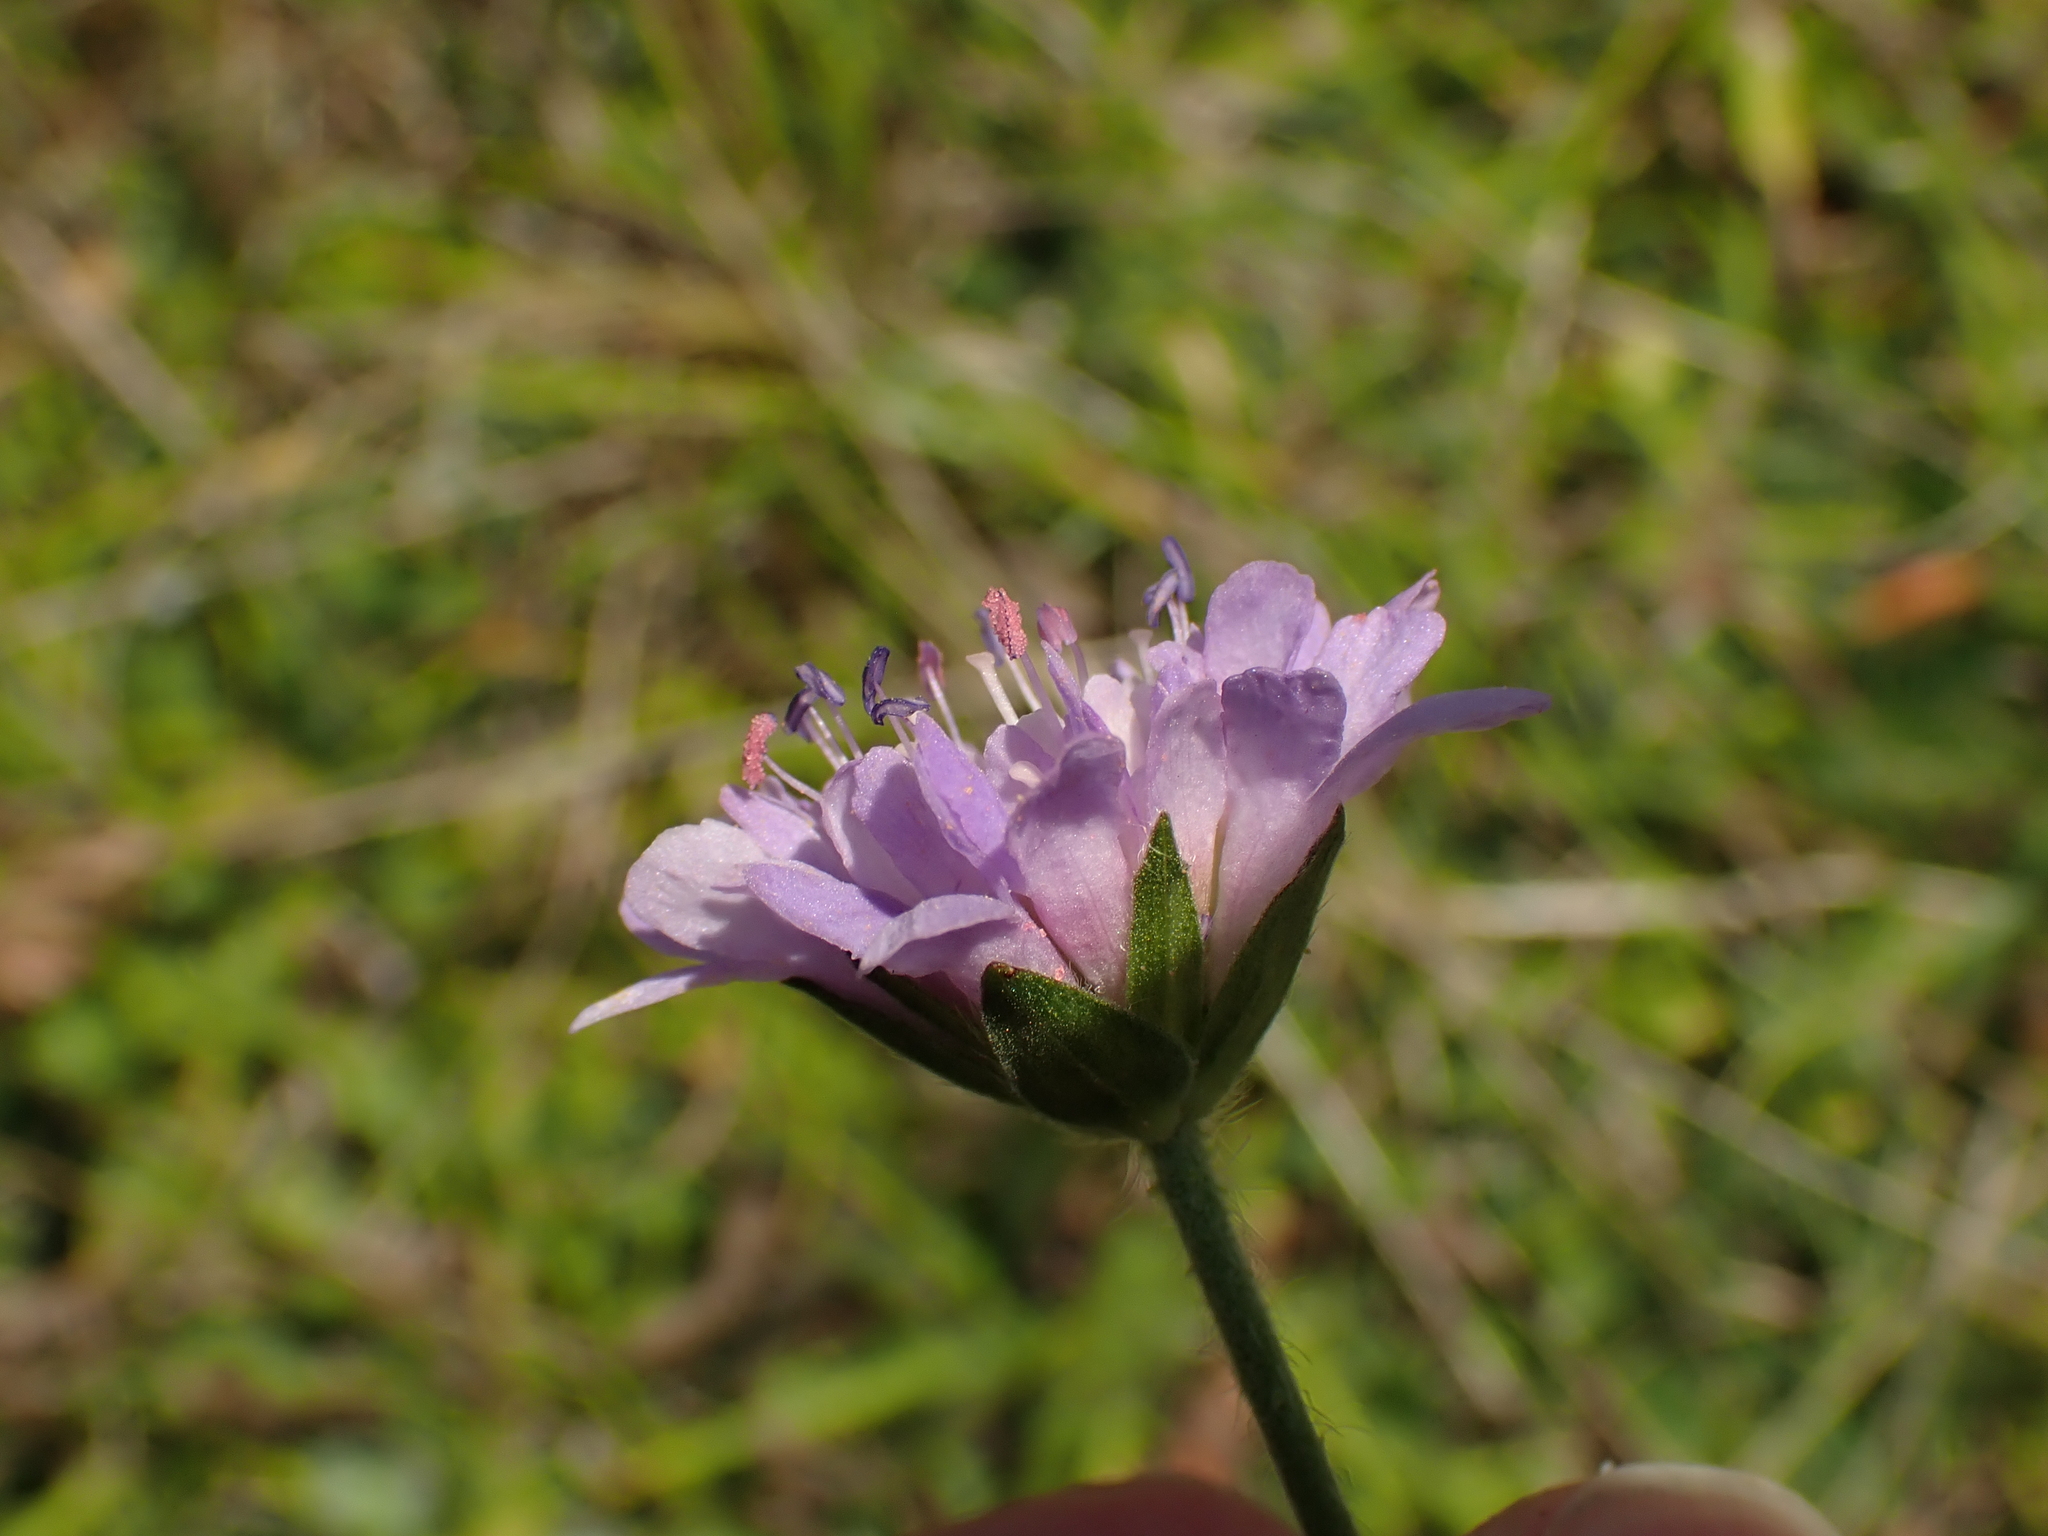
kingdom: Plantae
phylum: Tracheophyta
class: Magnoliopsida
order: Dipsacales
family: Caprifoliaceae
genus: Knautia
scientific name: Knautia arvensis
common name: Field scabiosa
